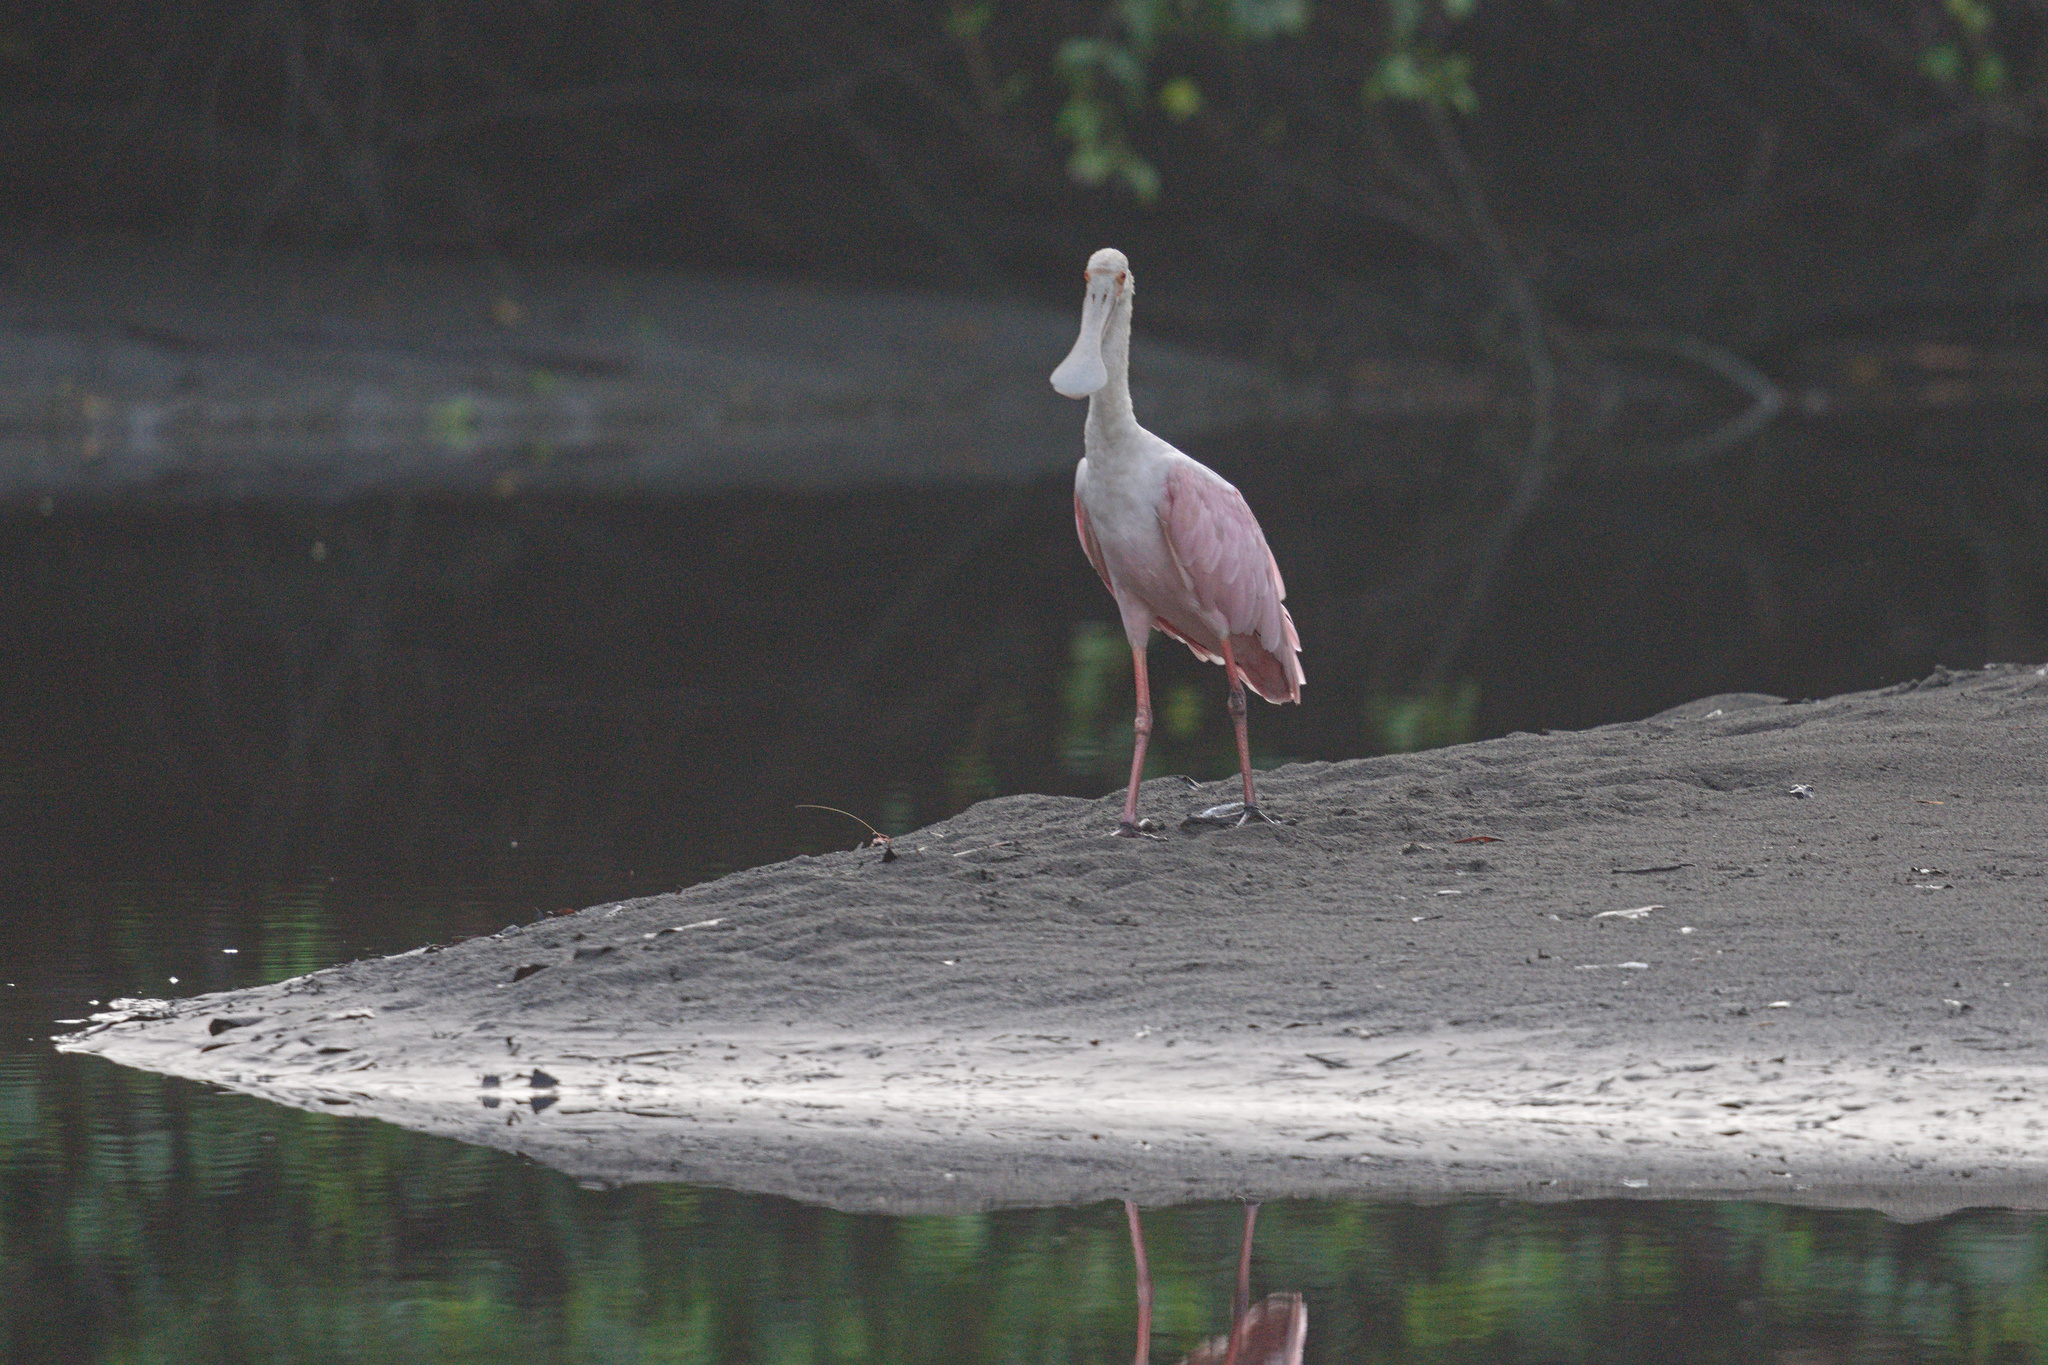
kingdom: Animalia
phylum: Chordata
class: Aves
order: Pelecaniformes
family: Threskiornithidae
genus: Platalea
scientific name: Platalea ajaja
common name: Roseate spoonbill
